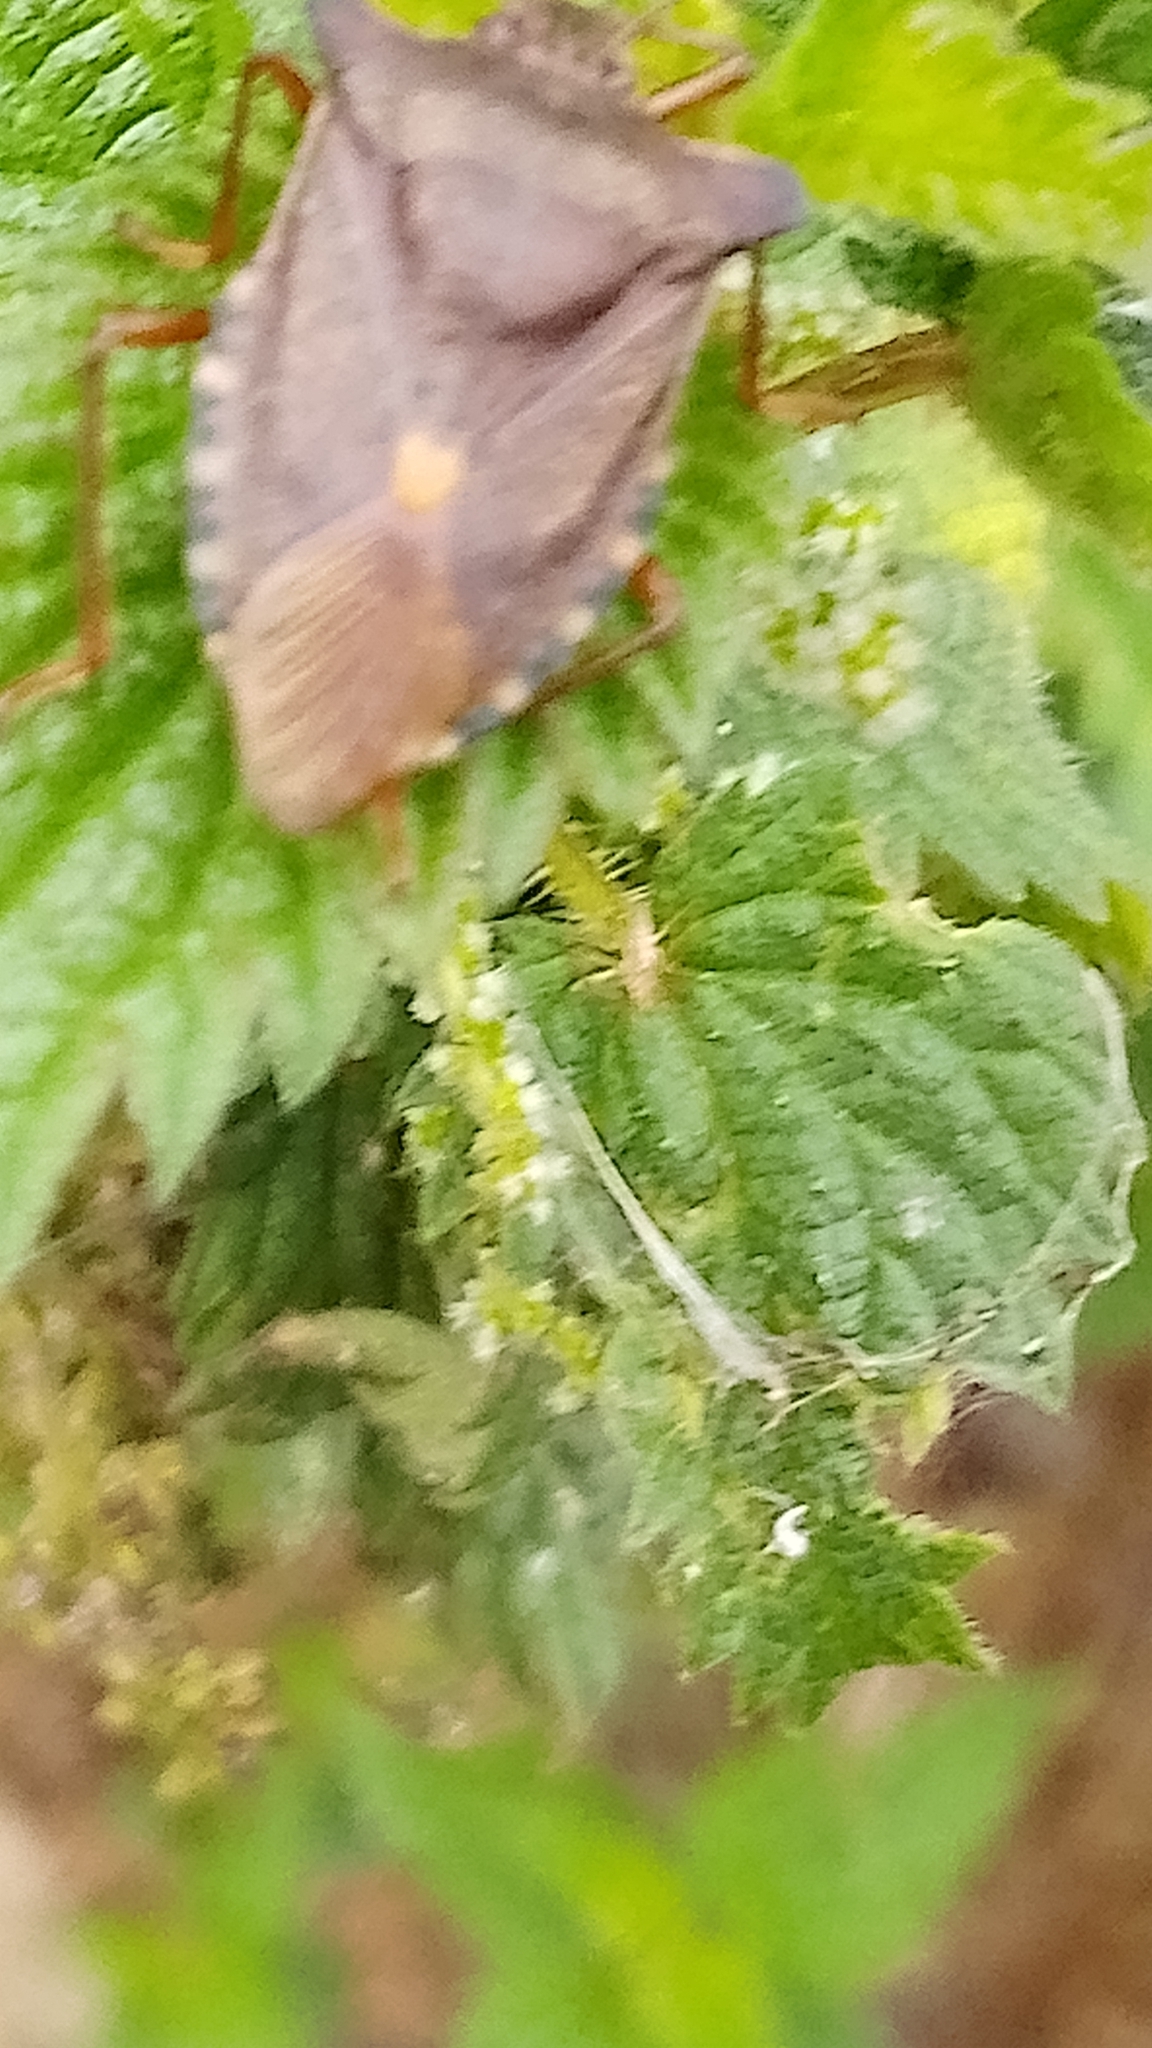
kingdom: Animalia
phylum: Arthropoda
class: Insecta
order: Hemiptera
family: Pentatomidae
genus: Pentatoma
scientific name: Pentatoma rufipes
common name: Forest bug
